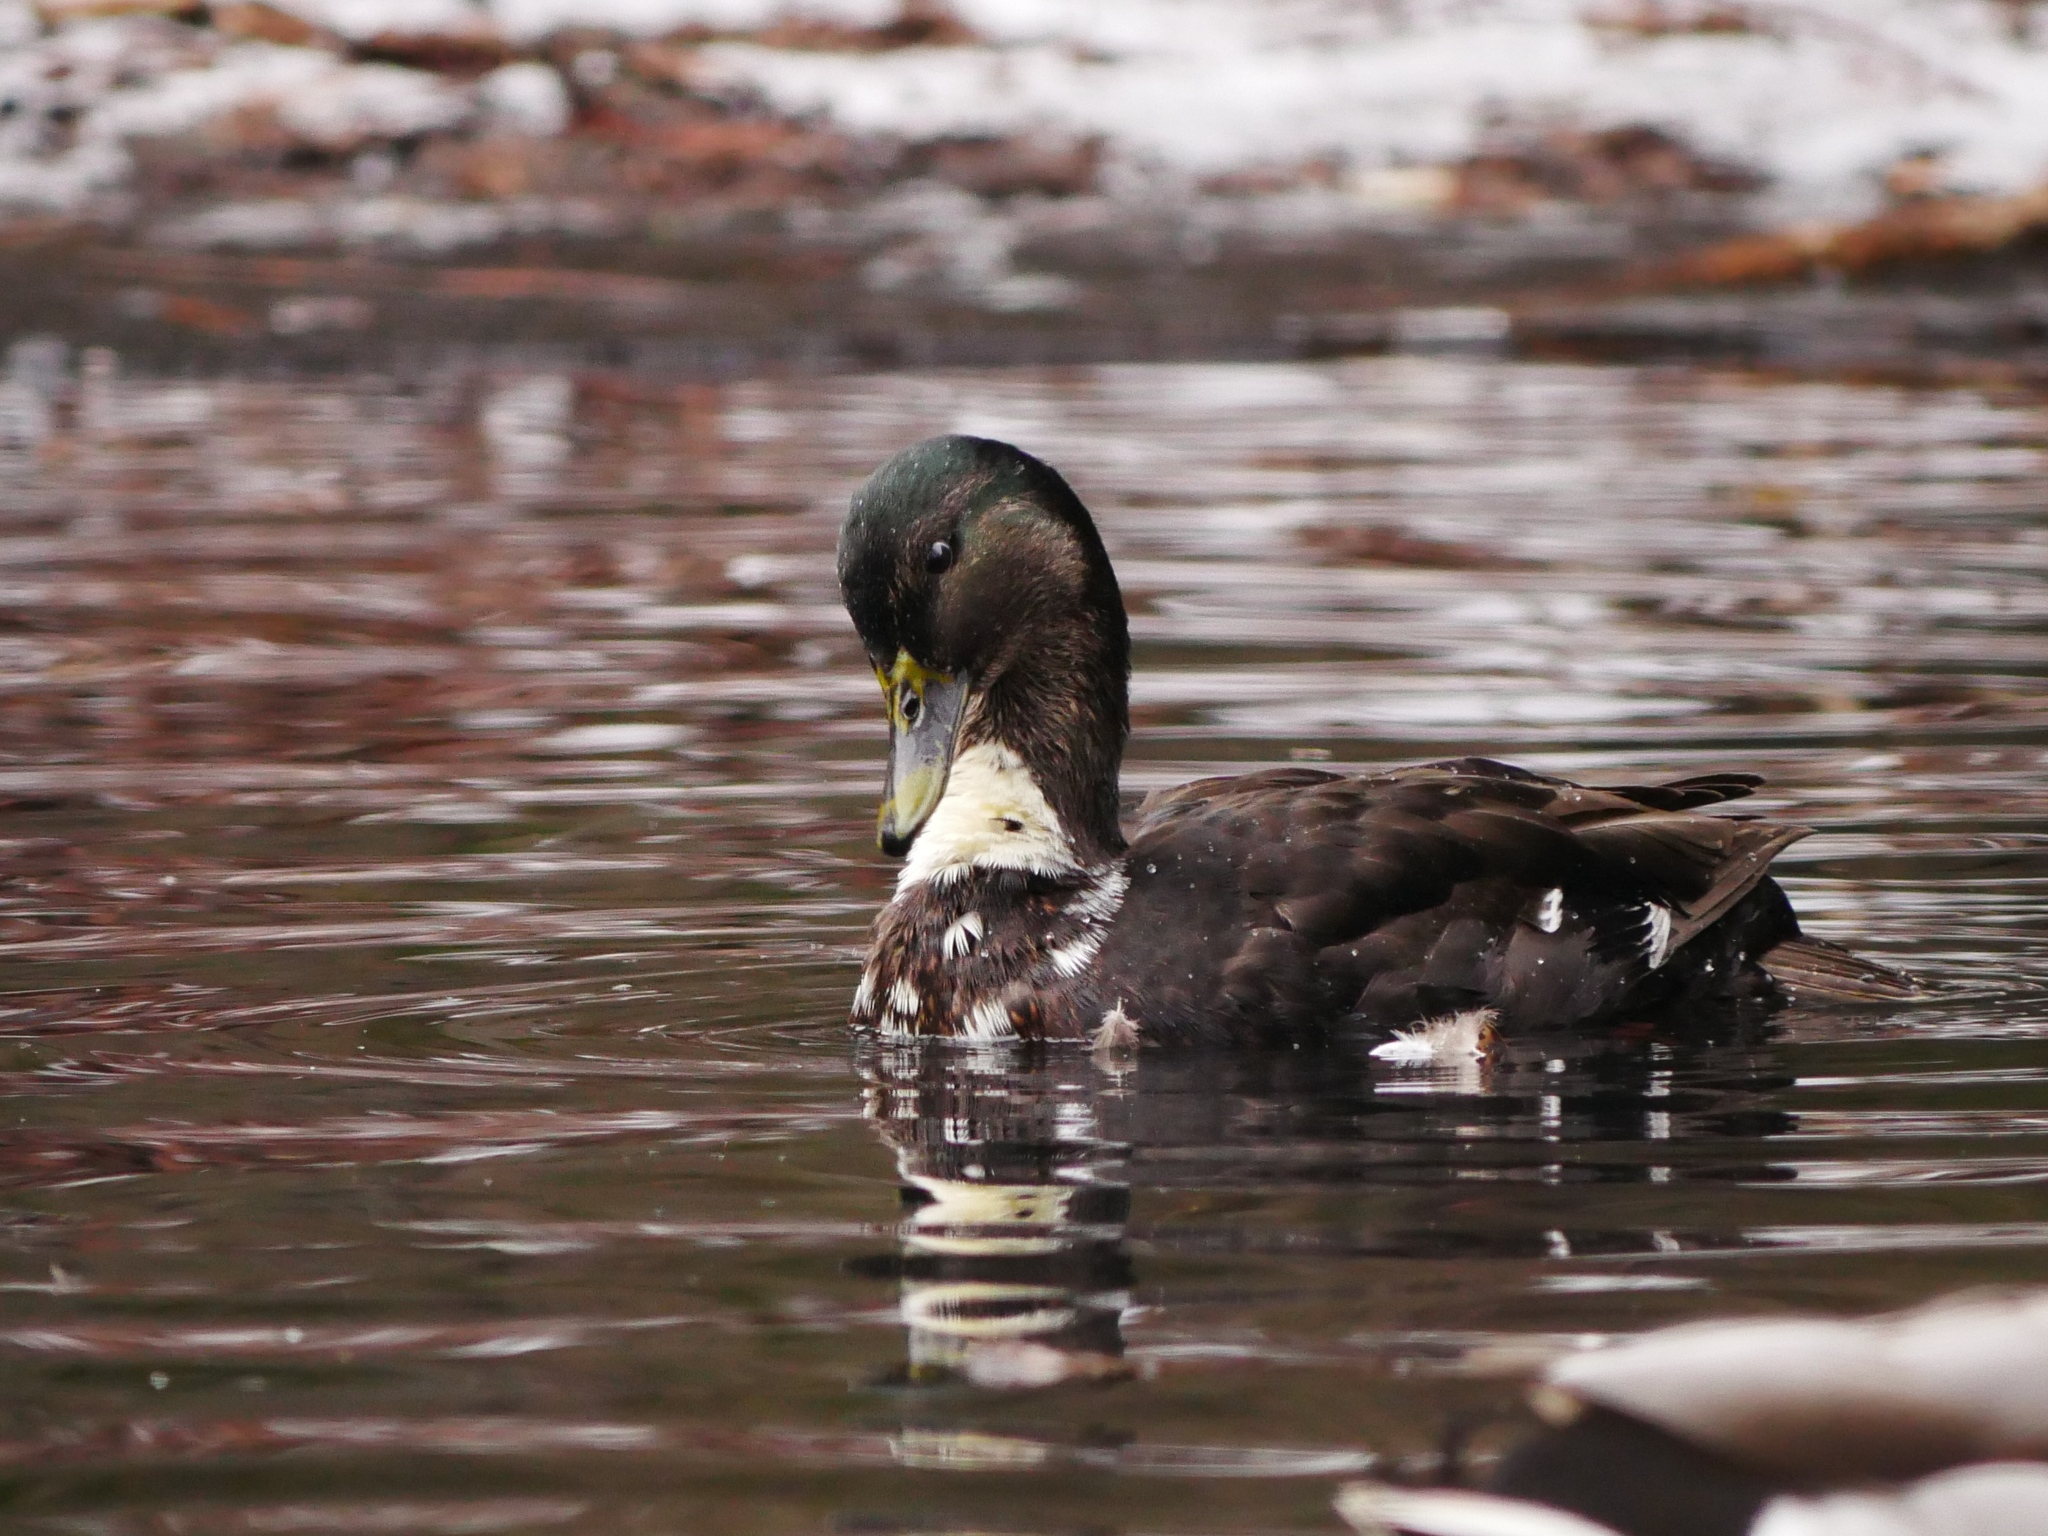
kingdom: Animalia
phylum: Chordata
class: Aves
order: Anseriformes
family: Anatidae
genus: Anas
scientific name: Anas platyrhynchos
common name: Mallard
